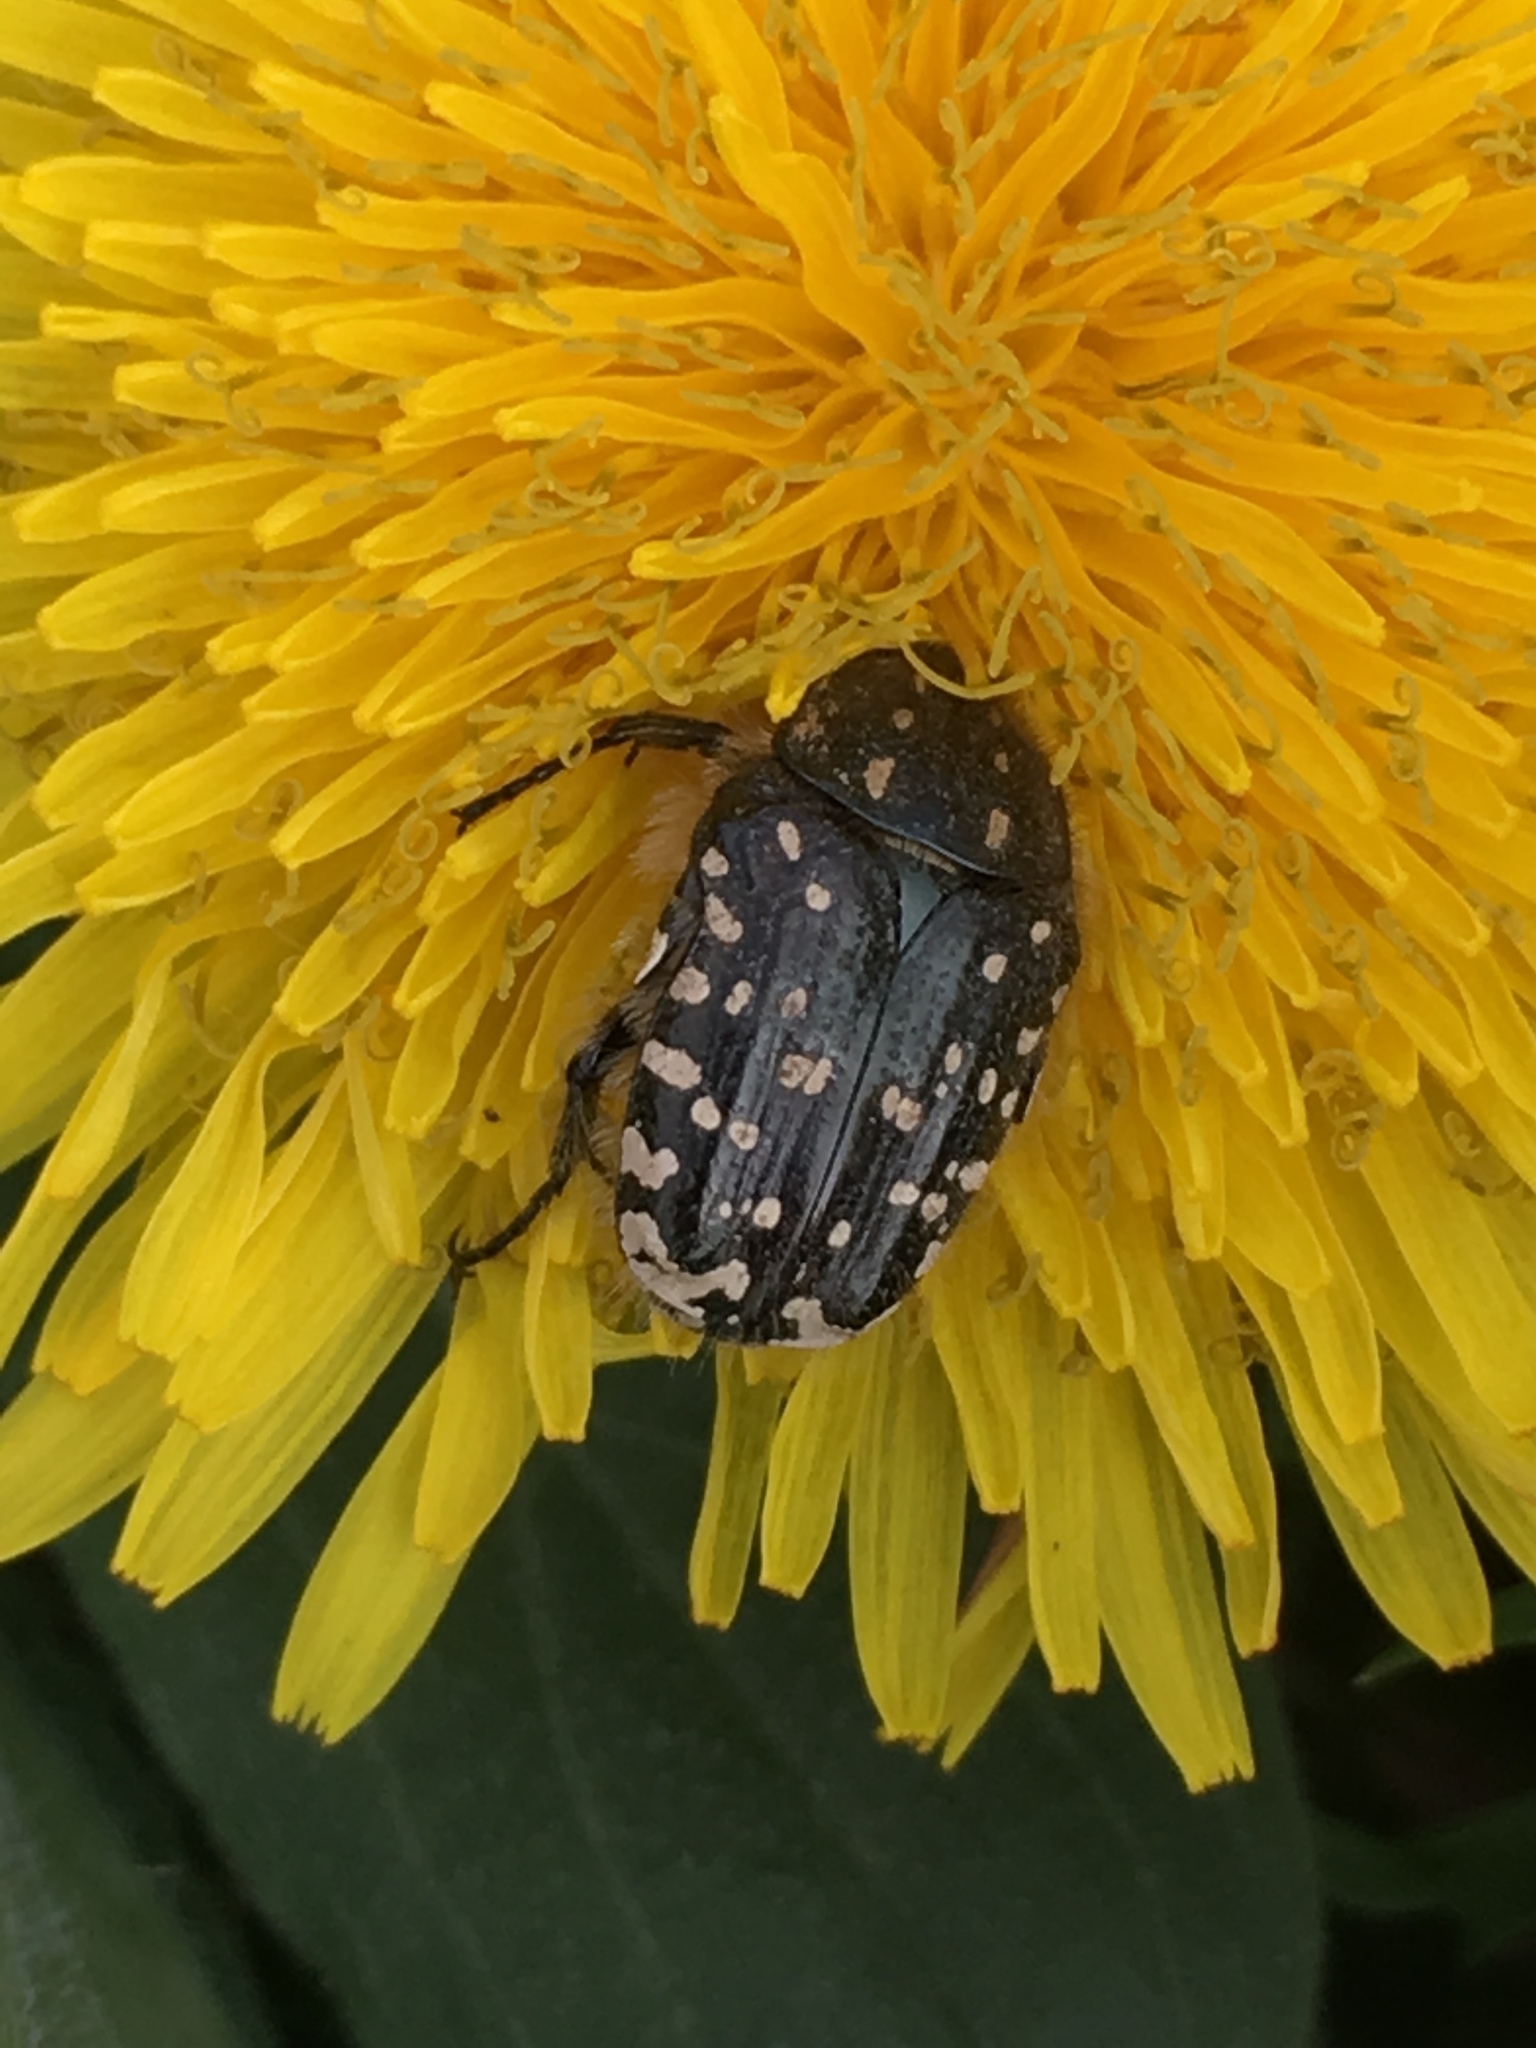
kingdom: Animalia
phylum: Arthropoda
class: Insecta
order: Coleoptera
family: Scarabaeidae
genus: Oxythyrea
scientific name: Oxythyrea funesta
